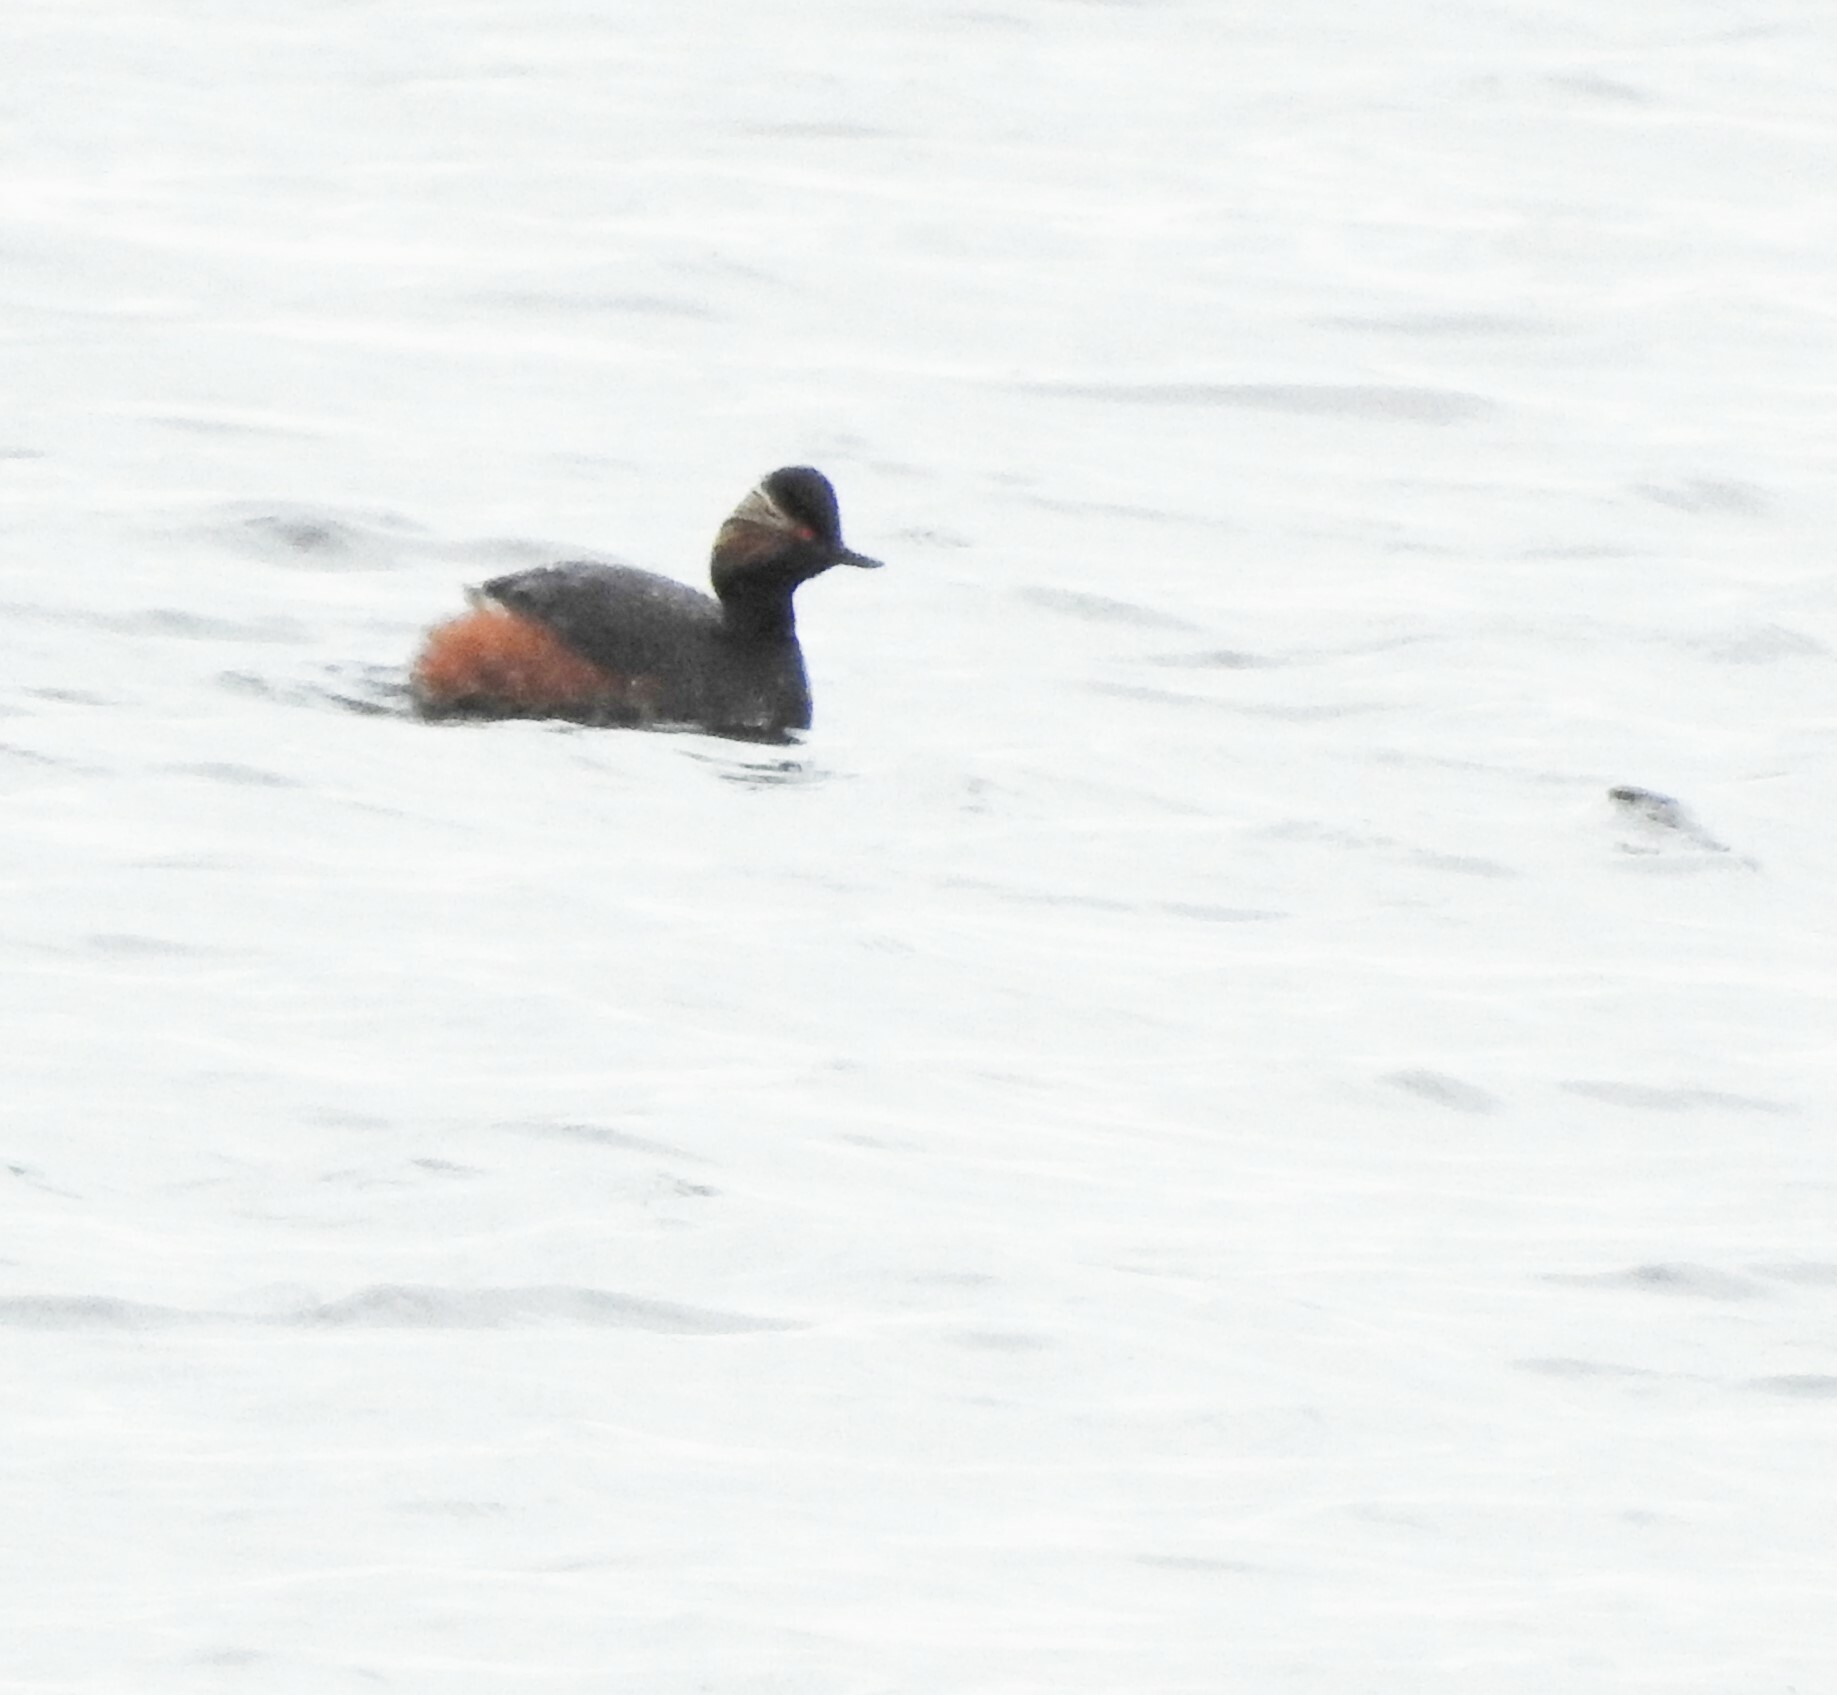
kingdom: Animalia
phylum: Chordata
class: Aves
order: Podicipediformes
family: Podicipedidae
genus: Podiceps
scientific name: Podiceps nigricollis
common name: Black-necked grebe
